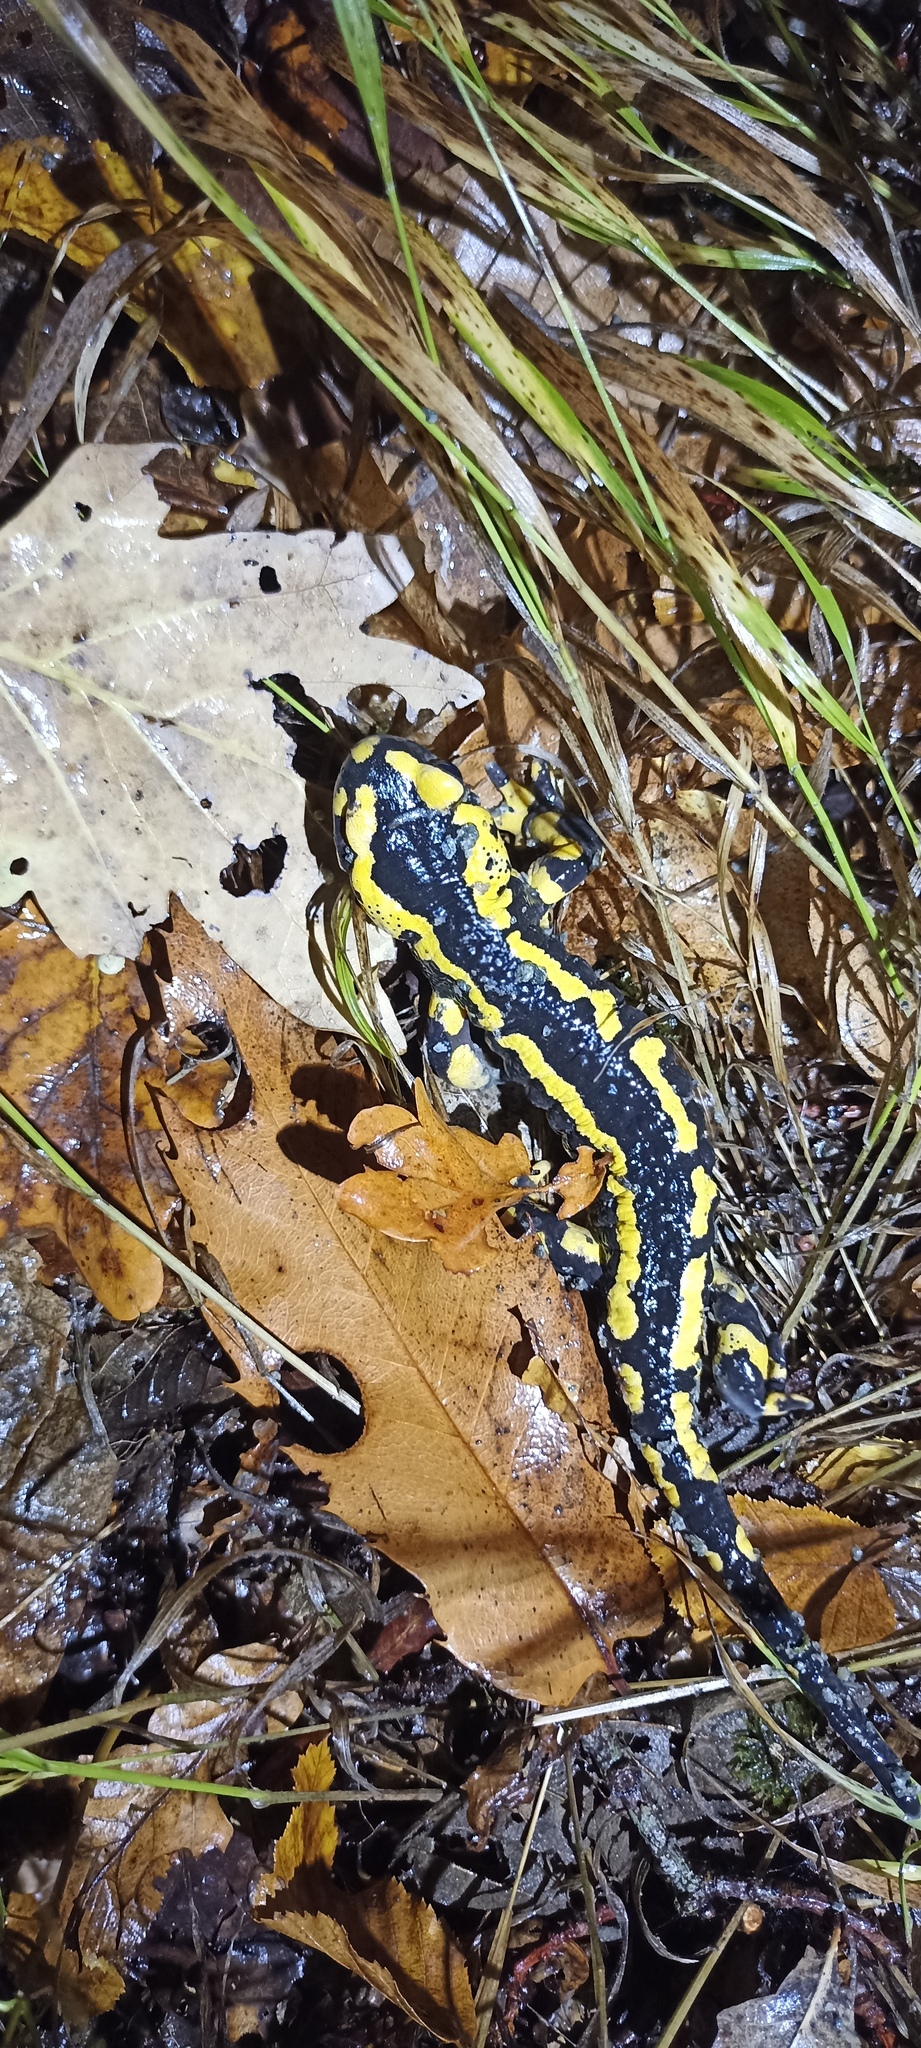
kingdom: Animalia
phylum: Chordata
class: Amphibia
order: Caudata
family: Salamandridae
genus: Salamandra
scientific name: Salamandra salamandra
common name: Fire salamander
